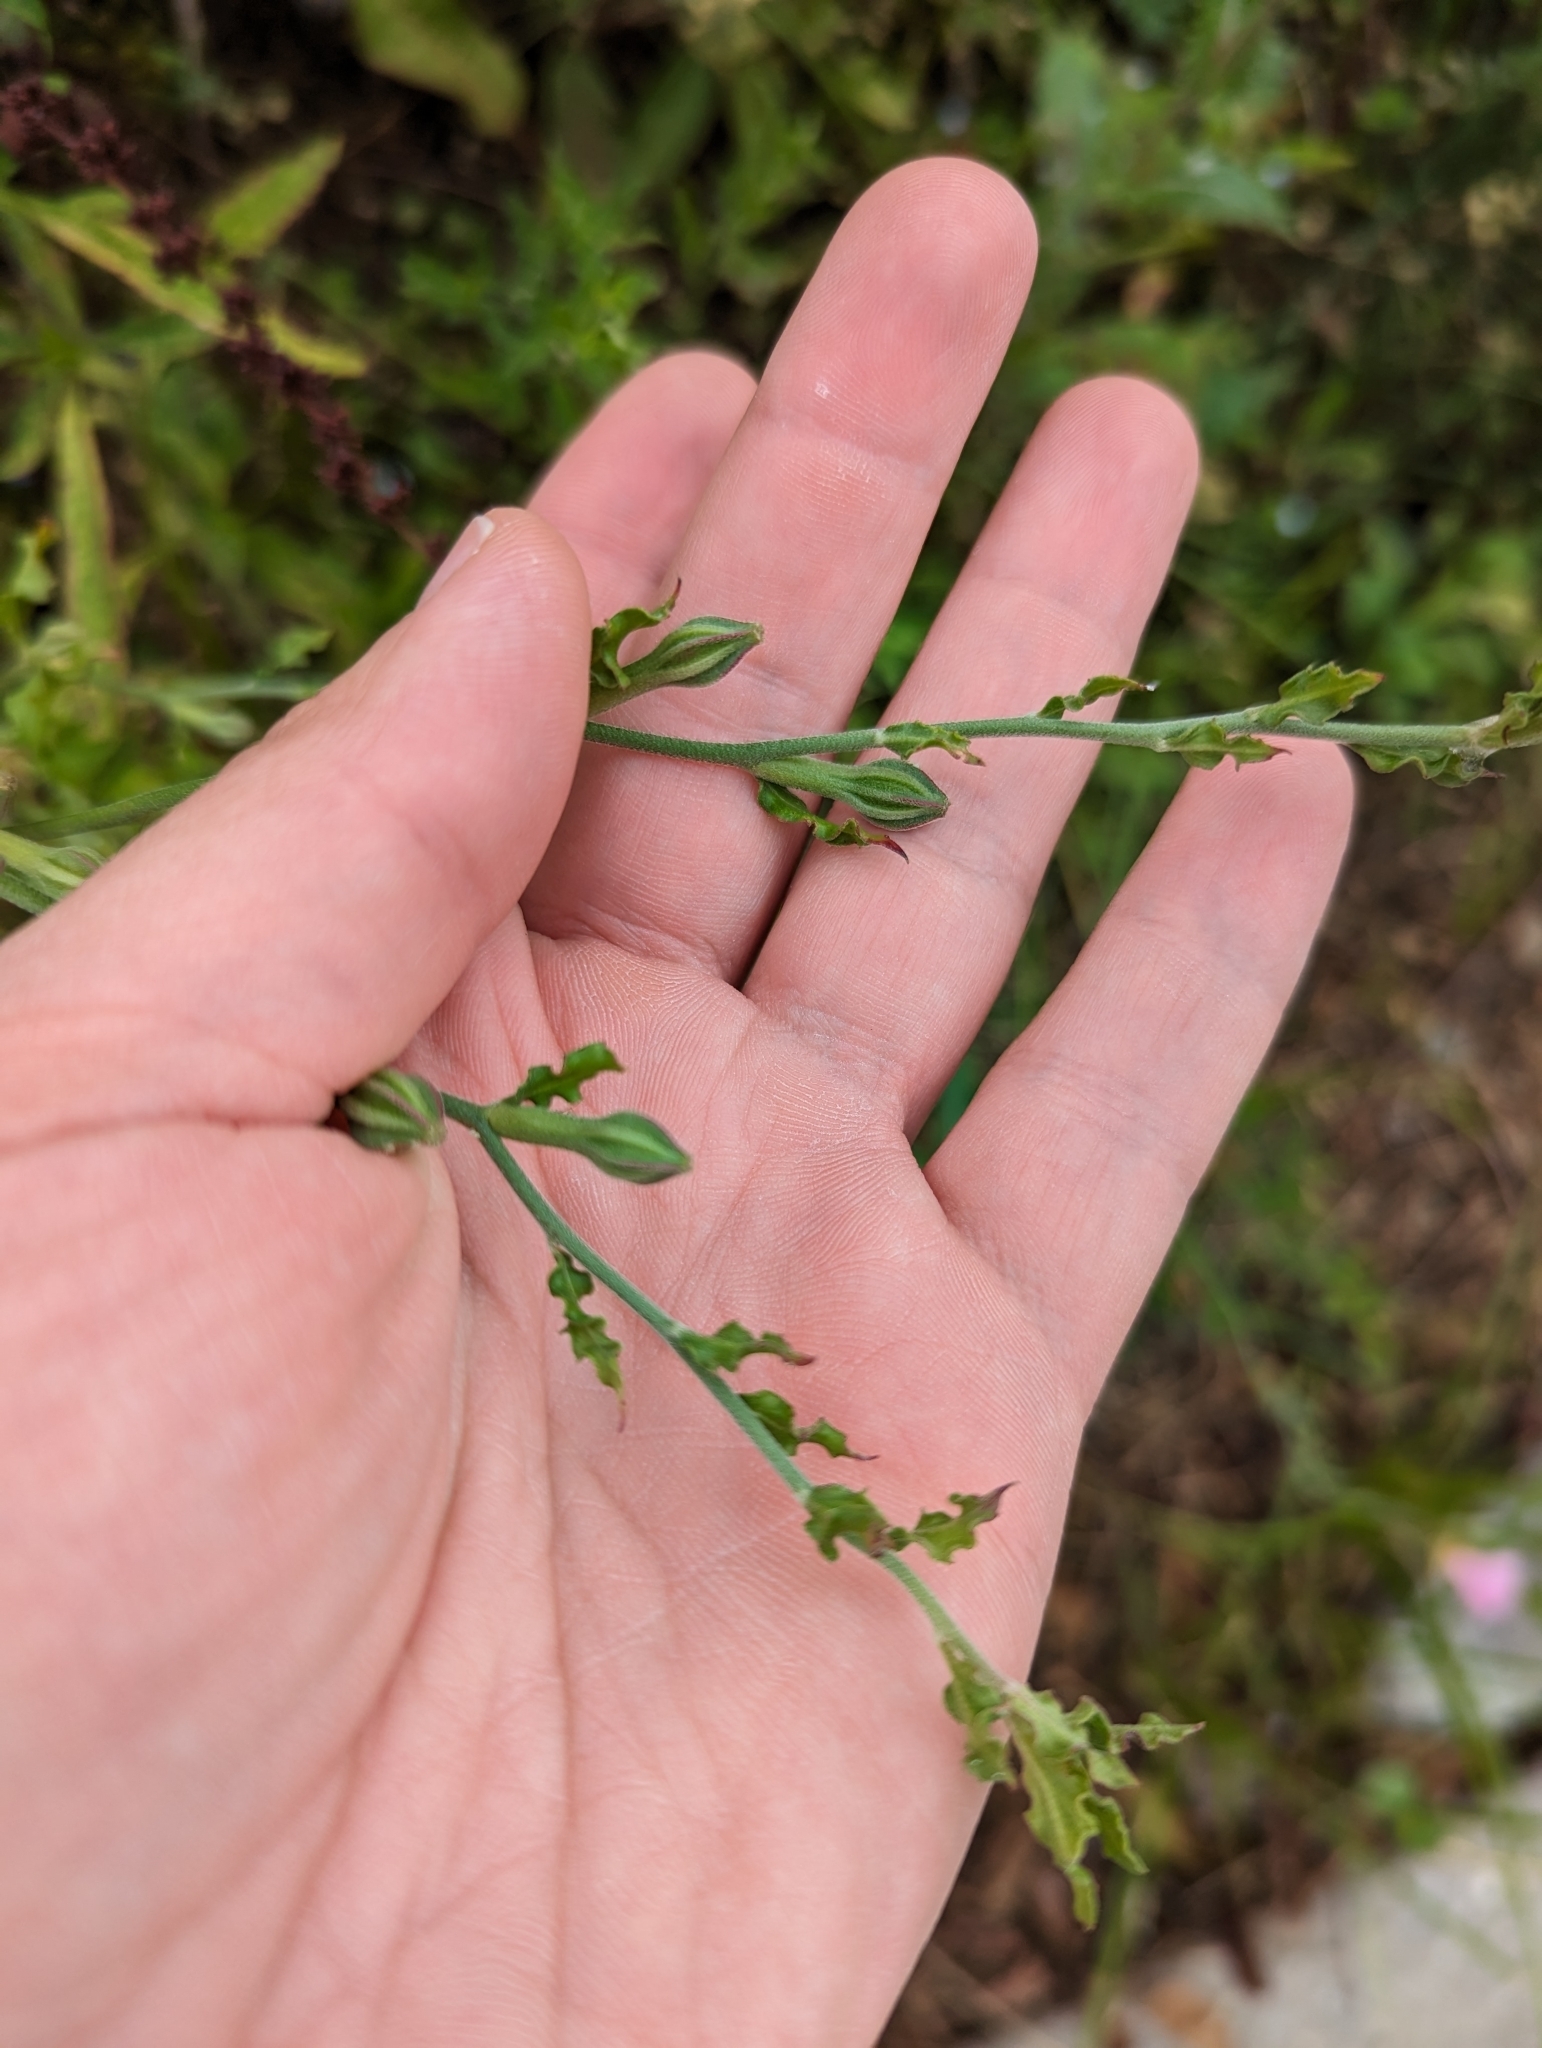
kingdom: Plantae
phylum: Tracheophyta
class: Magnoliopsida
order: Myrtales
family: Onagraceae
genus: Oenothera
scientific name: Oenothera speciosa
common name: White evening-primrose
